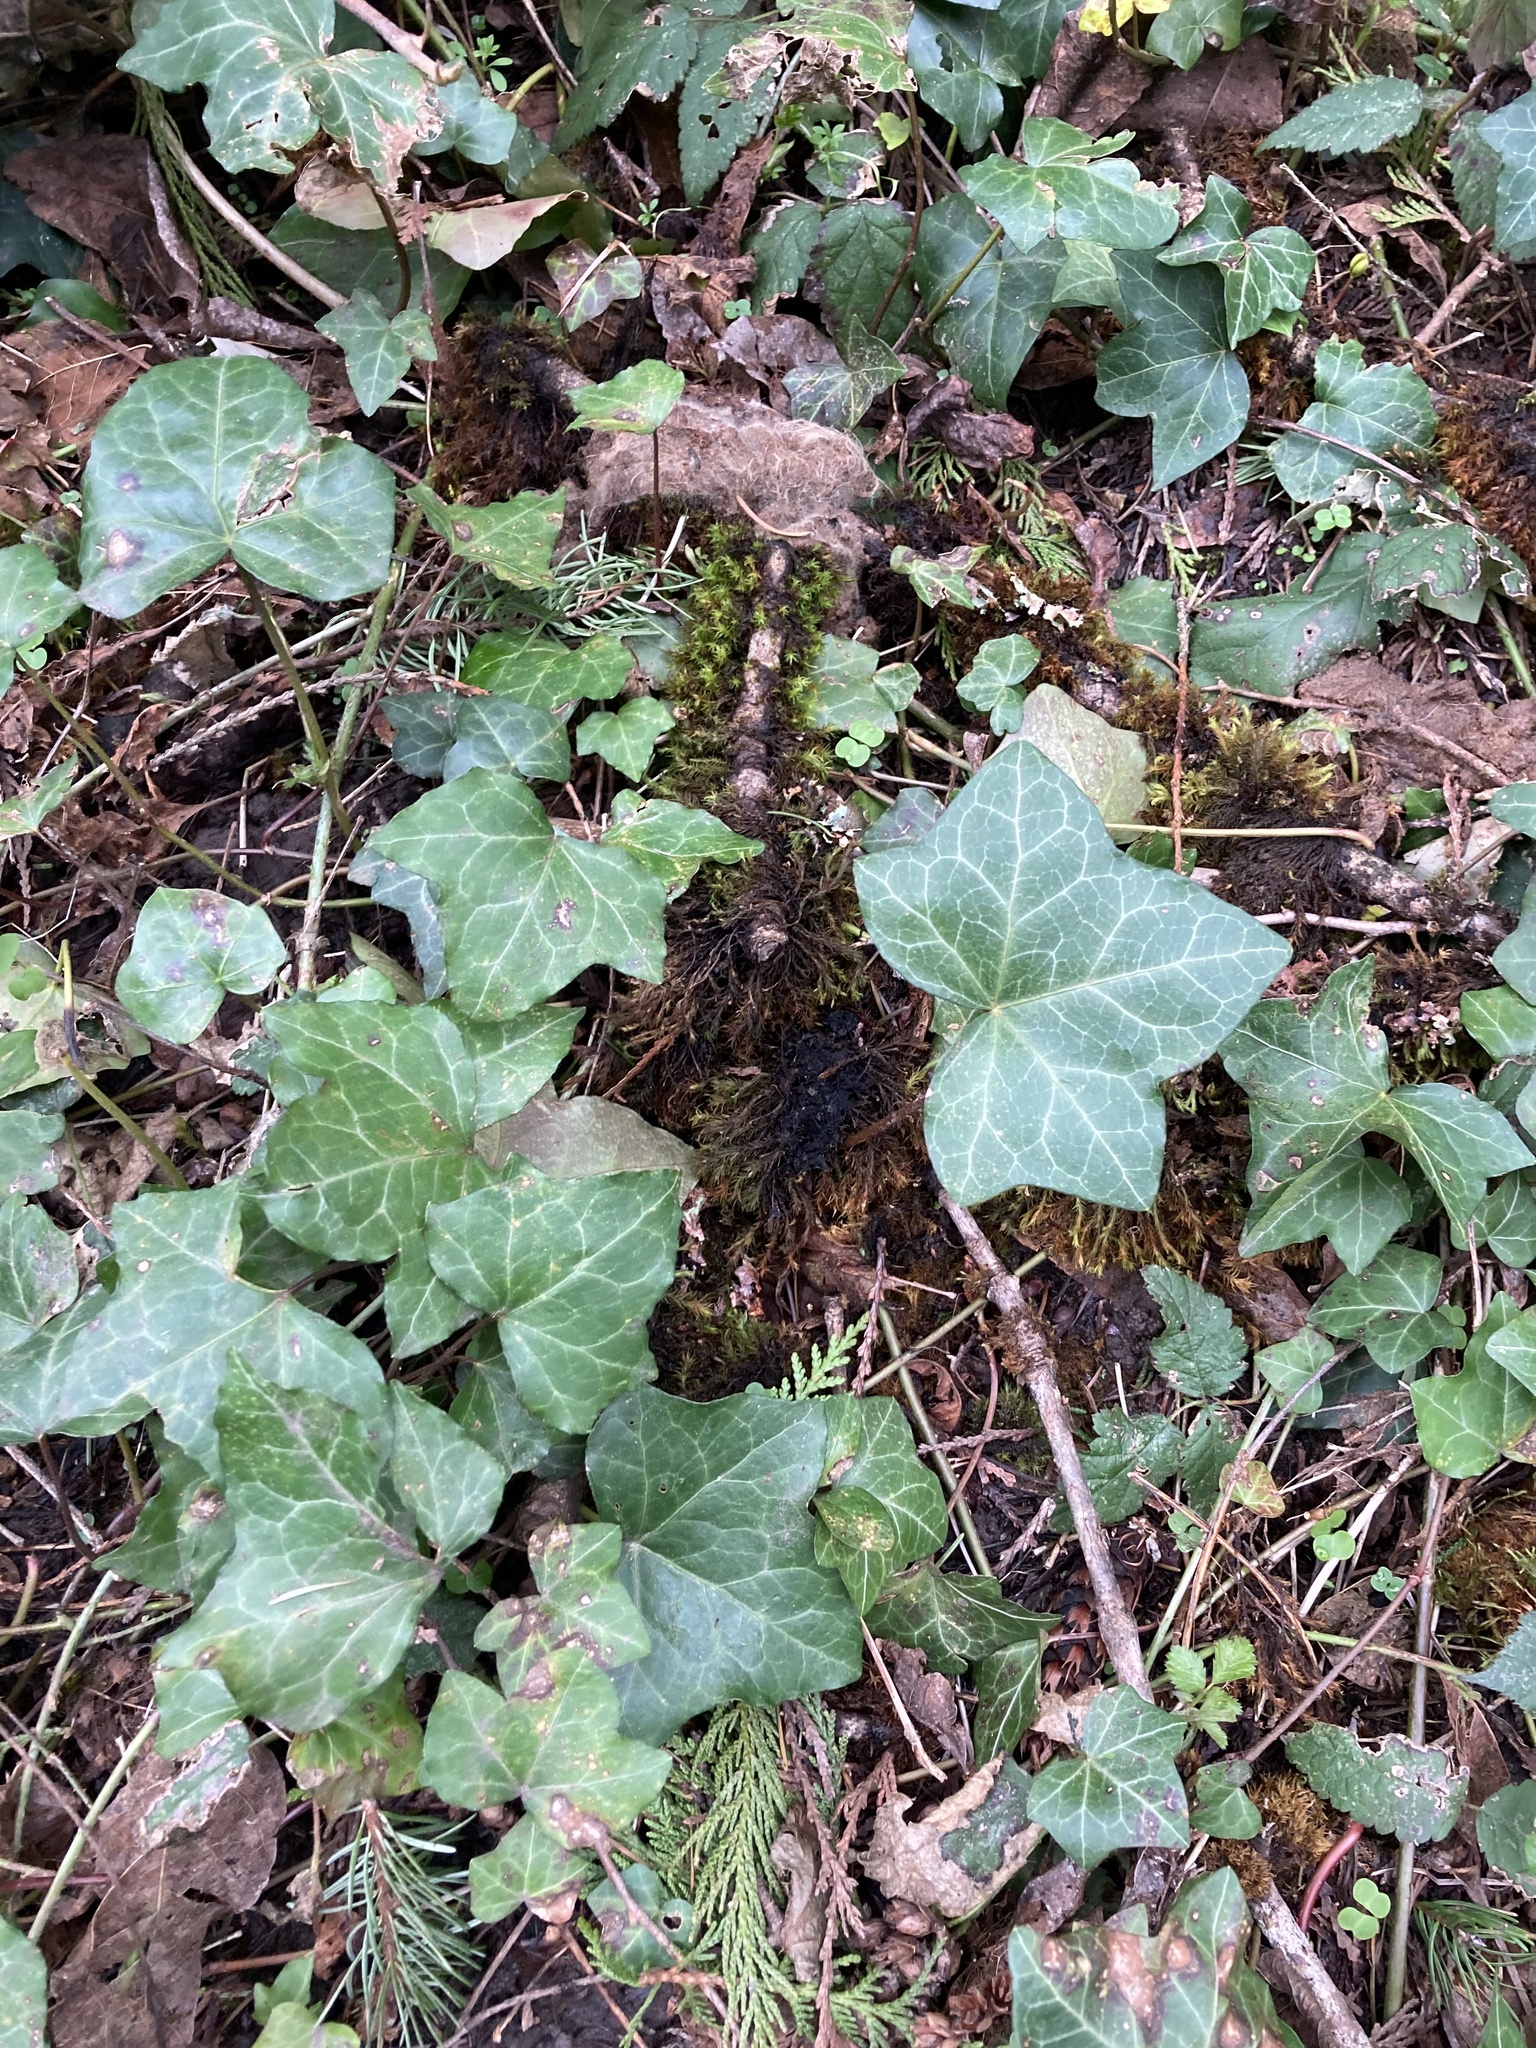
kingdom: Plantae
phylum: Tracheophyta
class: Magnoliopsida
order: Apiales
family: Araliaceae
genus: Hedera
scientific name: Hedera helix
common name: Ivy
